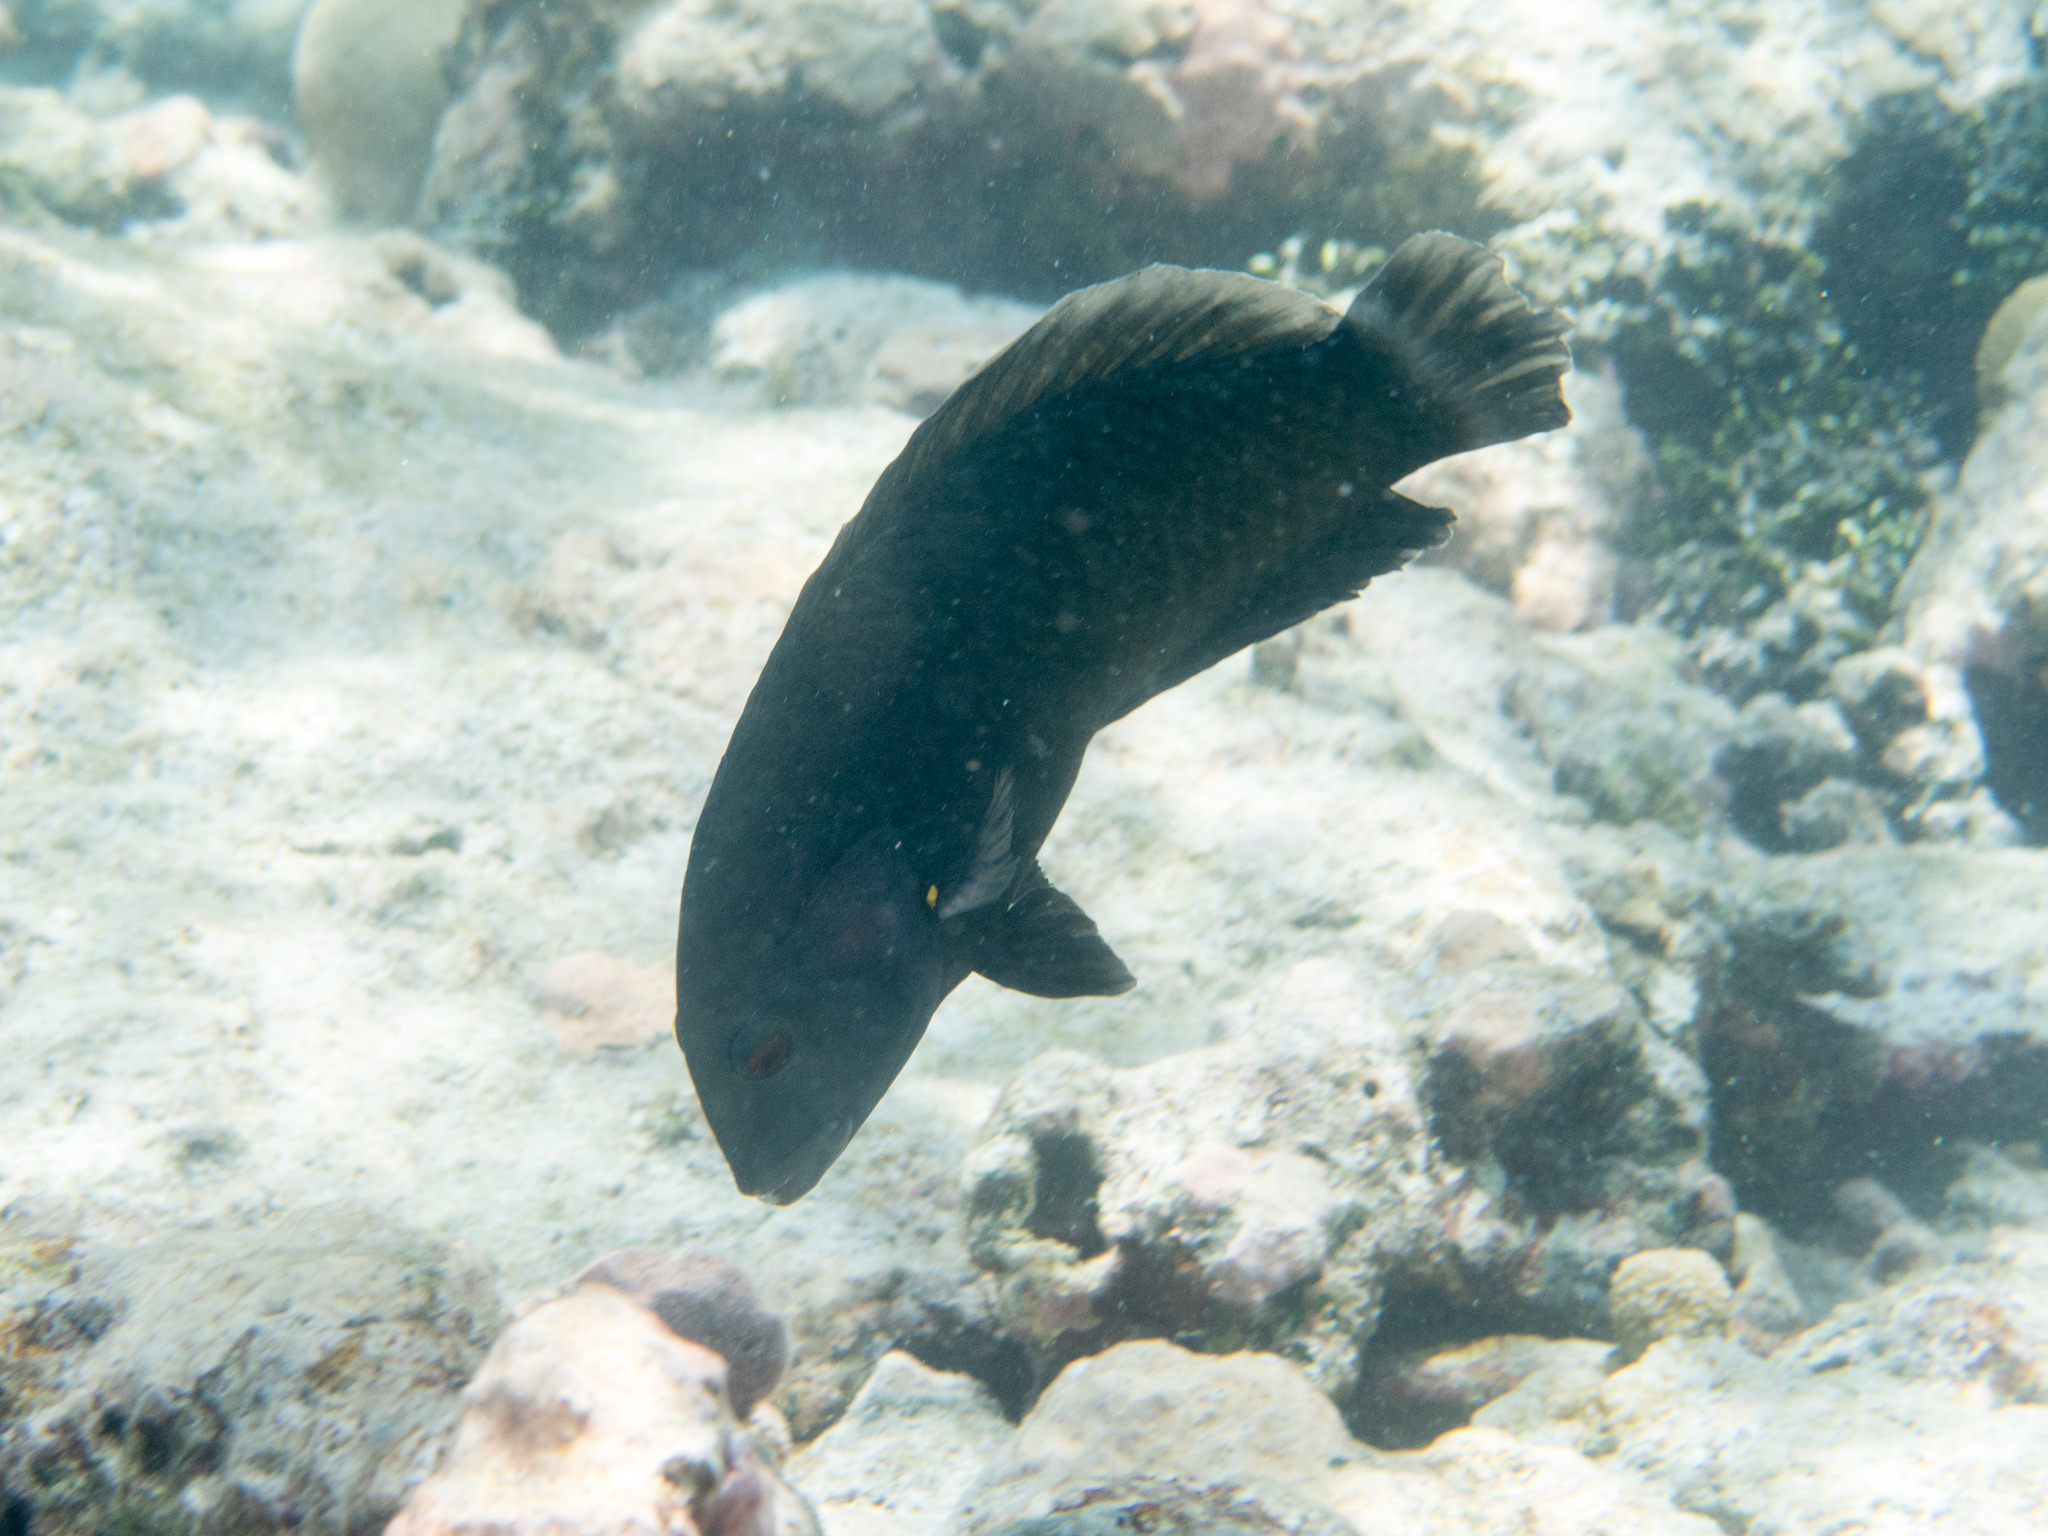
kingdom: Animalia
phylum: Chordata
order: Perciformes
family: Labridae
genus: Novaculichthys
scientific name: Novaculichthys taeniourus
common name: Rockmover wrasse
